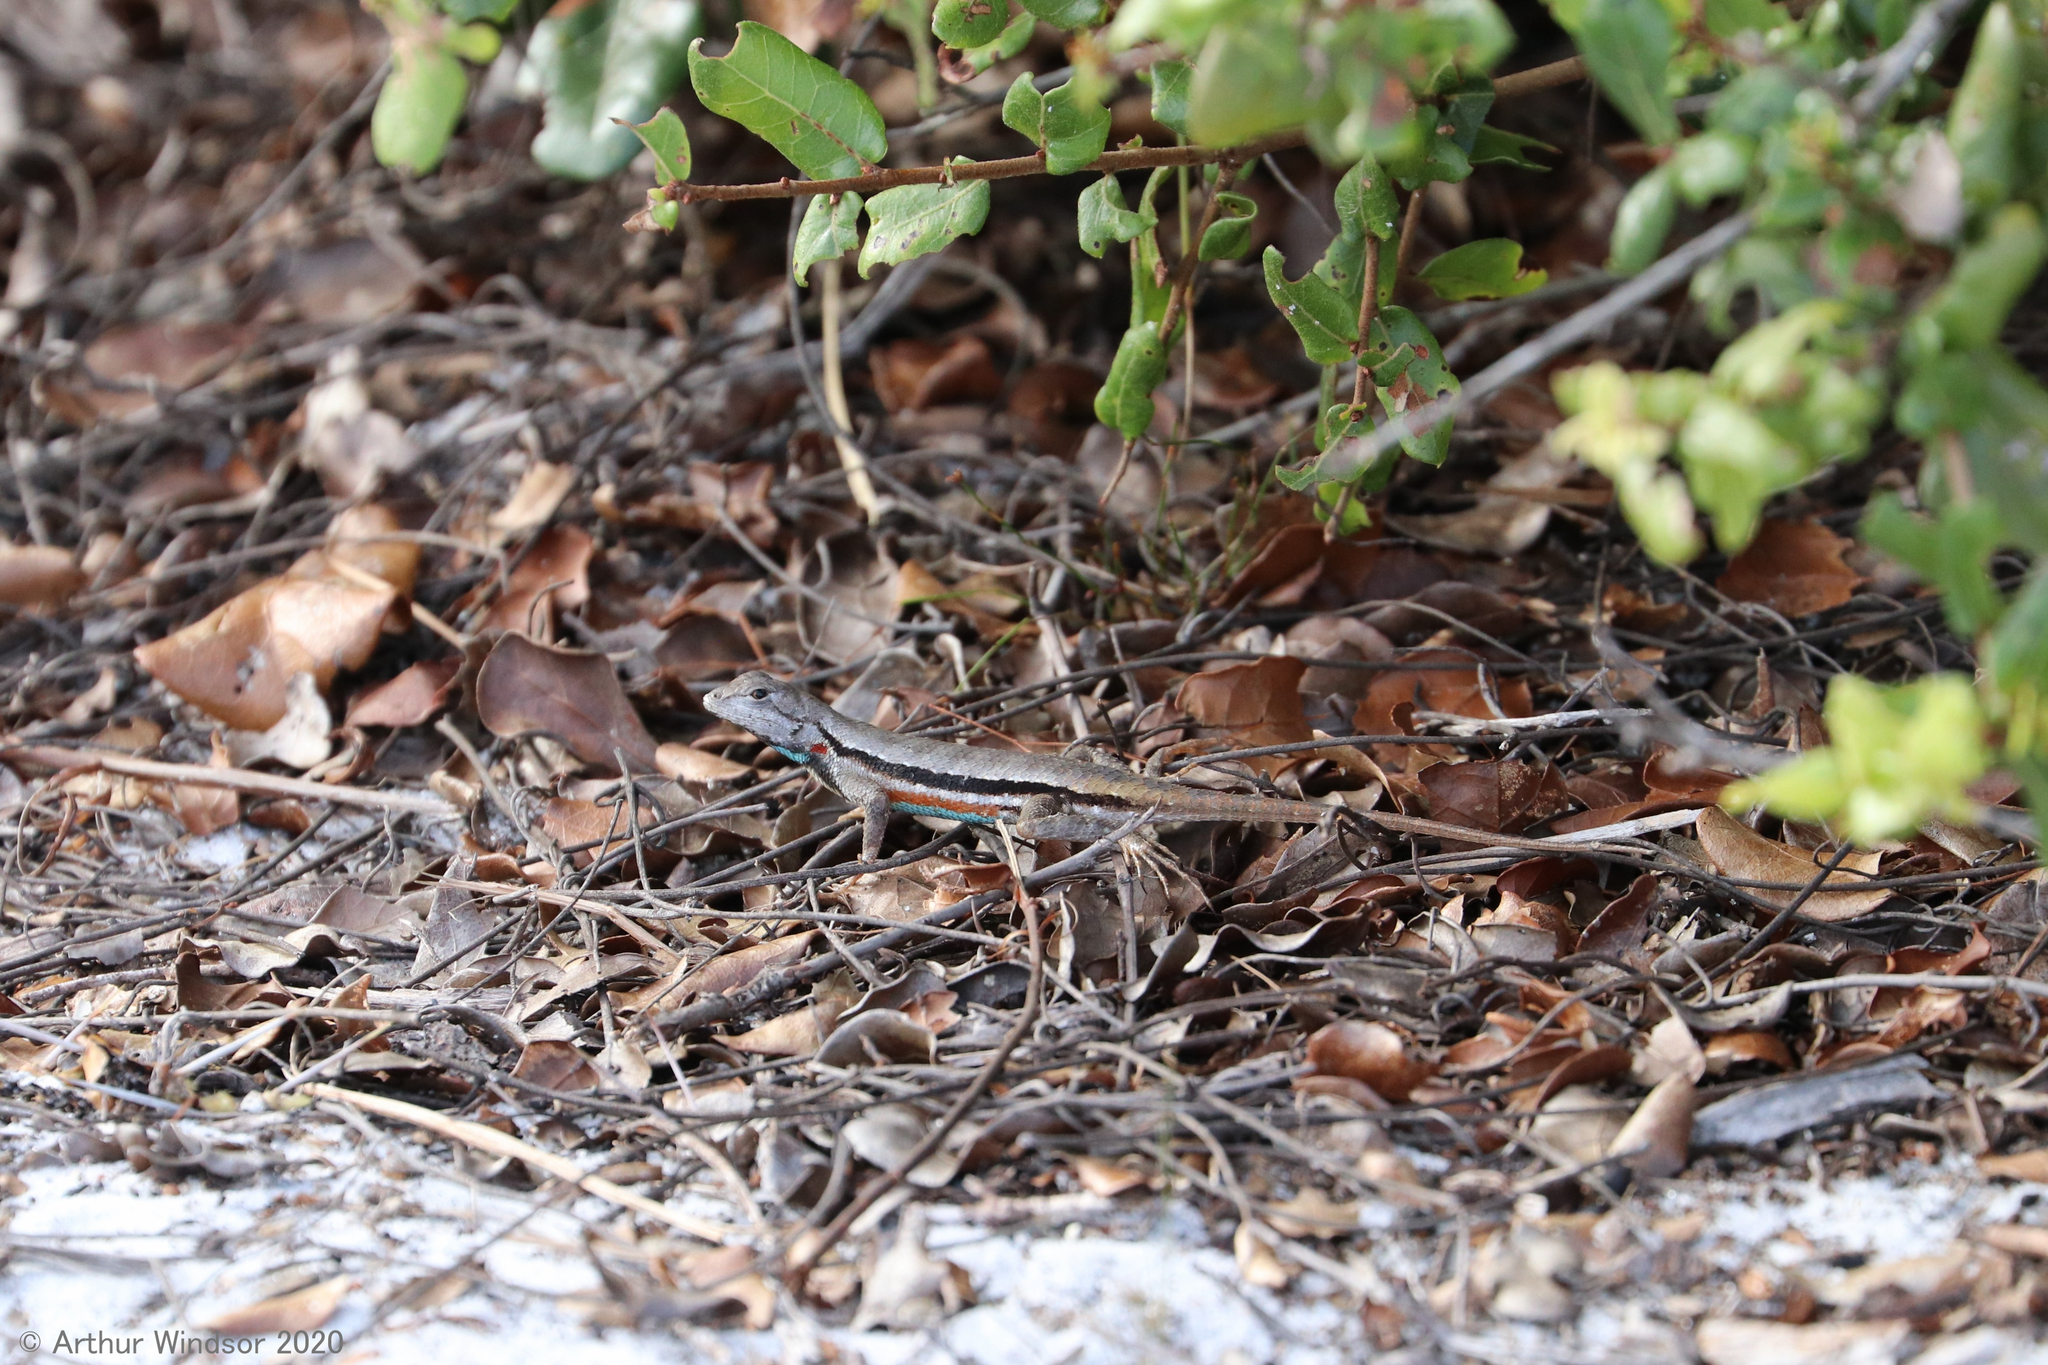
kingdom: Animalia
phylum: Chordata
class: Squamata
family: Phrynosomatidae
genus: Sceloporus
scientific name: Sceloporus woodi
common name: Florida scrub lizard
